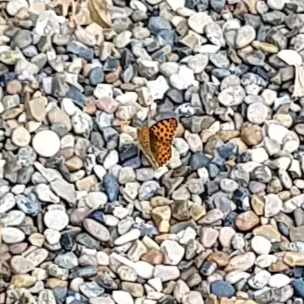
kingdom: Animalia
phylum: Arthropoda
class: Insecta
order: Lepidoptera
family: Nymphalidae
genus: Issoria
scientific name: Issoria lathonia
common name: Queen of spain fritillary
